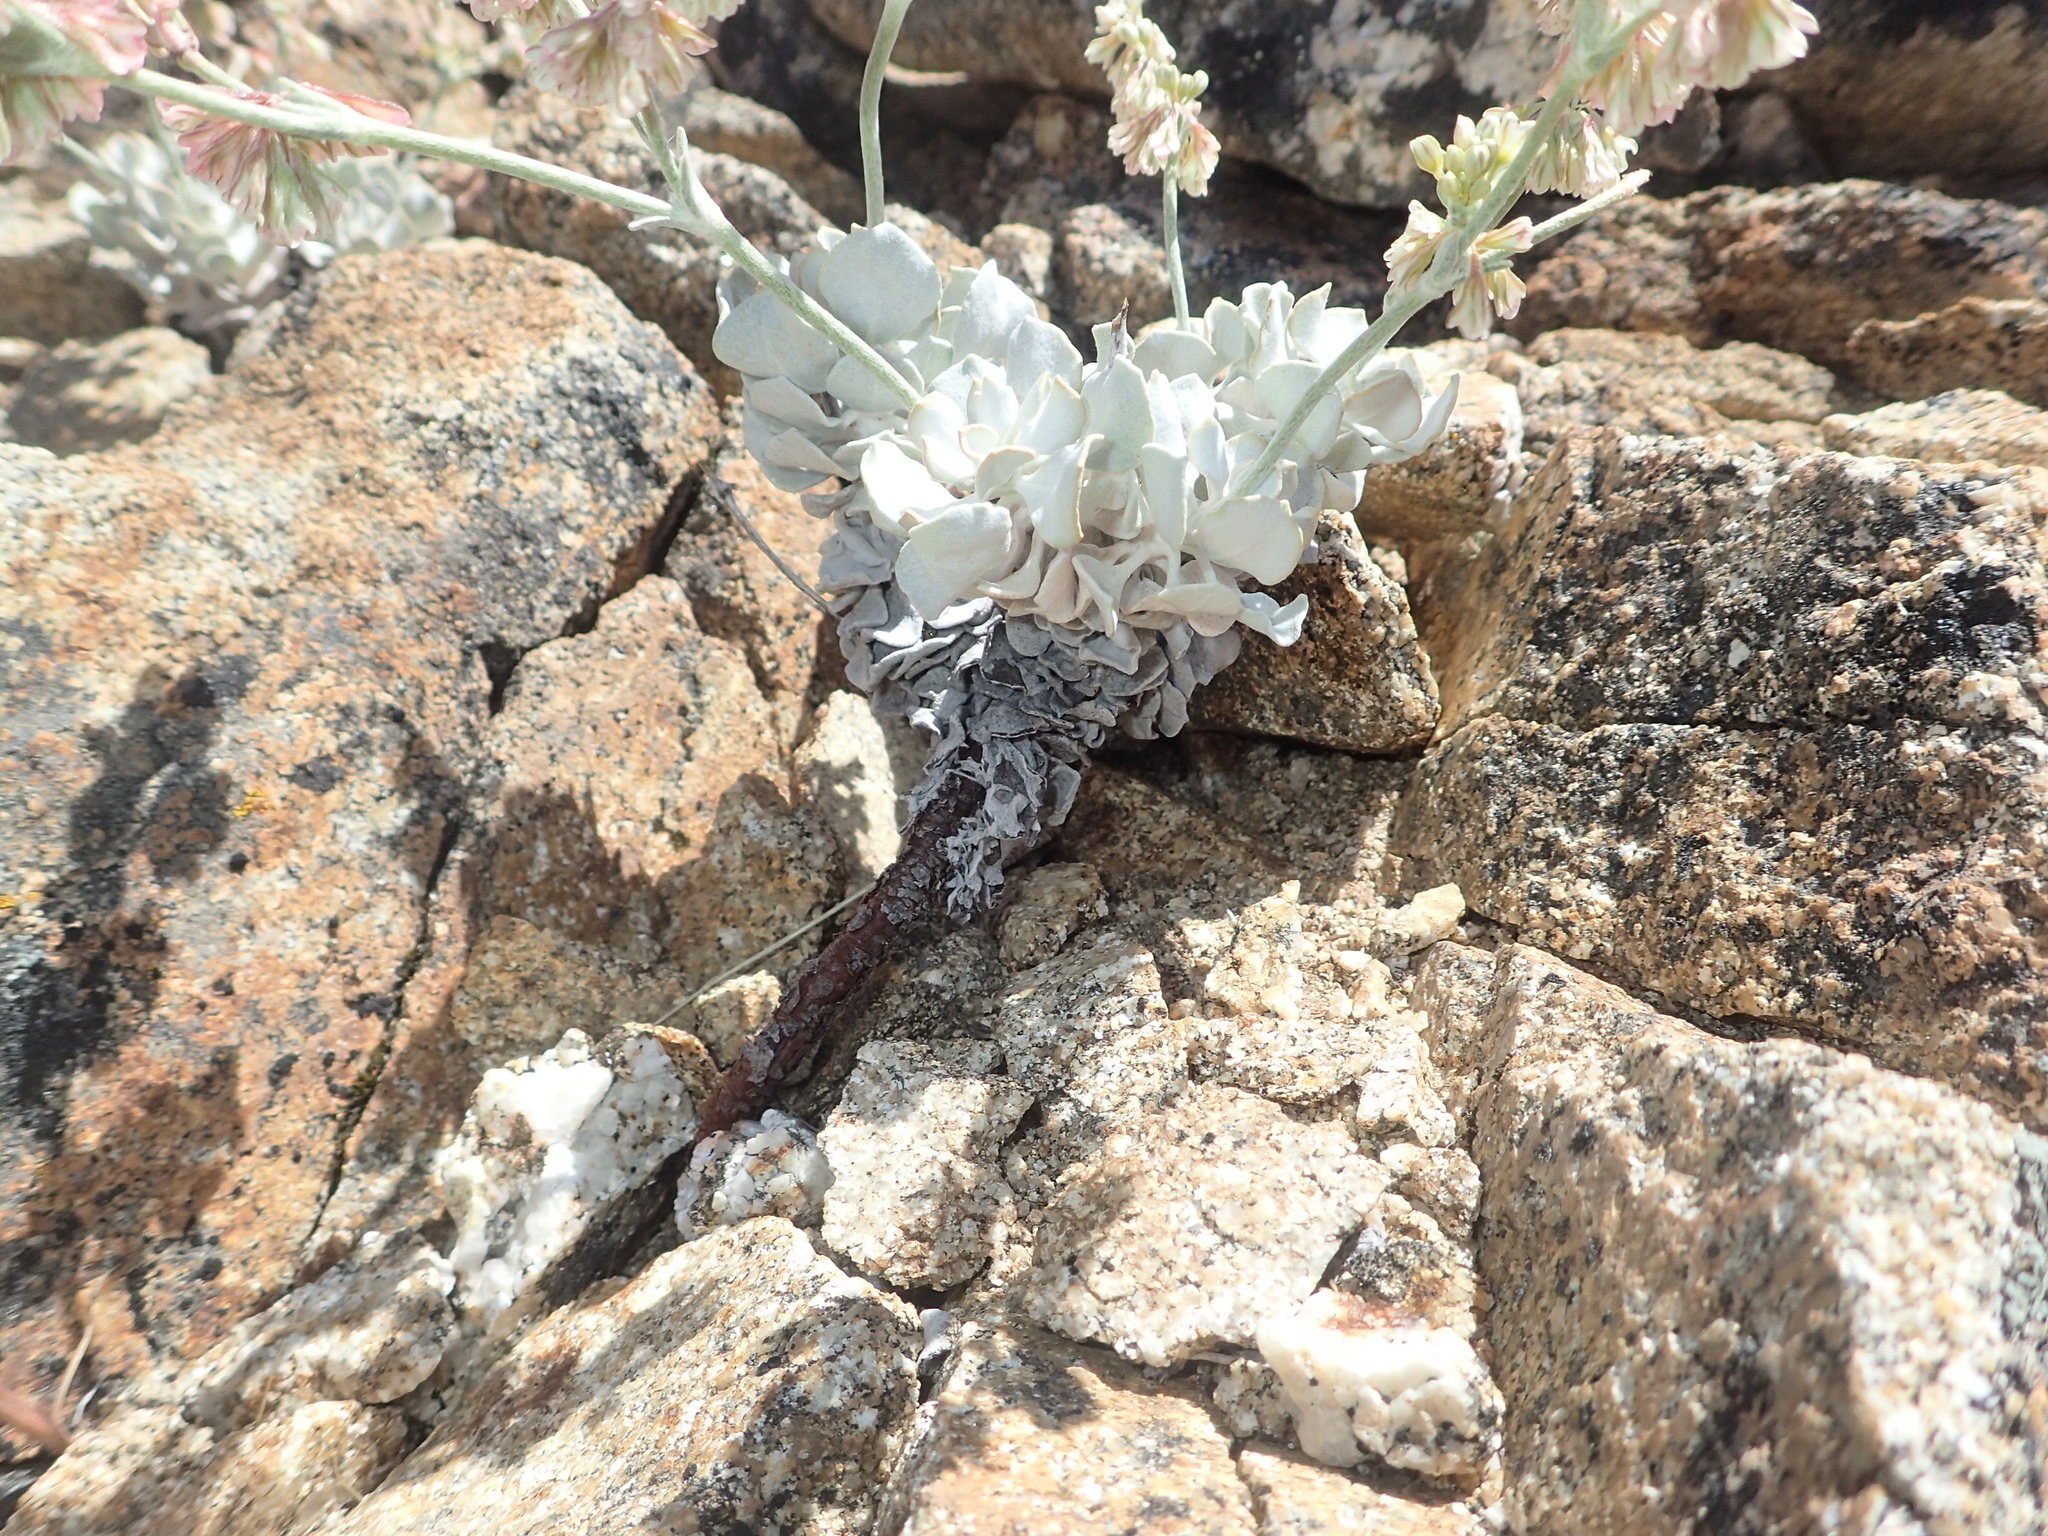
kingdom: Plantae
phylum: Tracheophyta
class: Magnoliopsida
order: Caryophyllales
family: Polygonaceae
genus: Eriogonum
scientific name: Eriogonum saxatile
